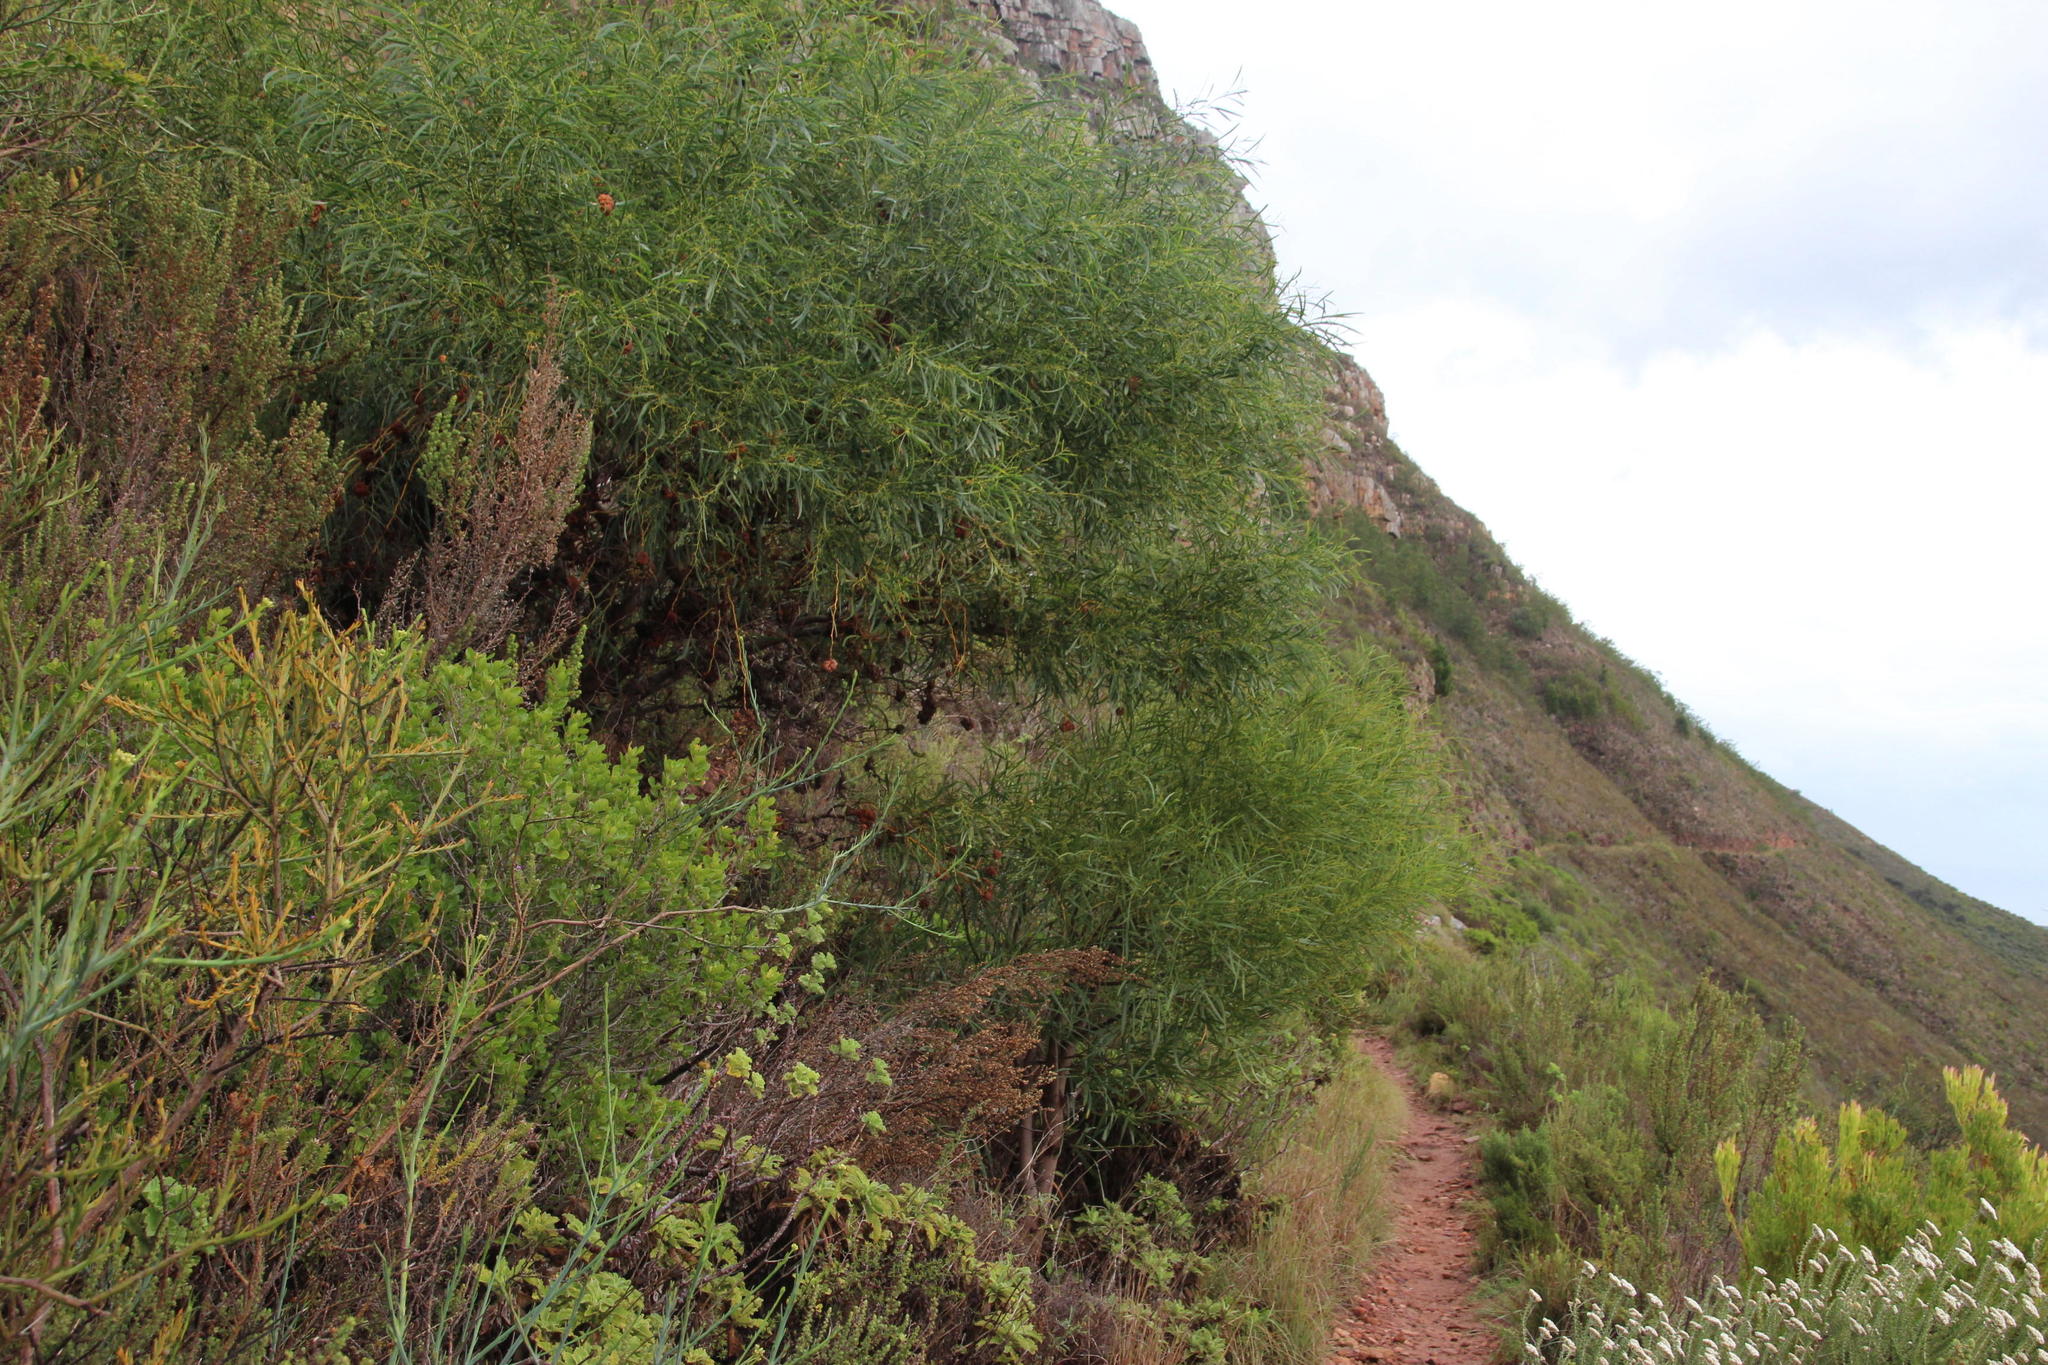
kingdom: Plantae
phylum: Tracheophyta
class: Magnoliopsida
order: Fabales
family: Fabaceae
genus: Acacia
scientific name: Acacia saligna
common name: Orange wattle
